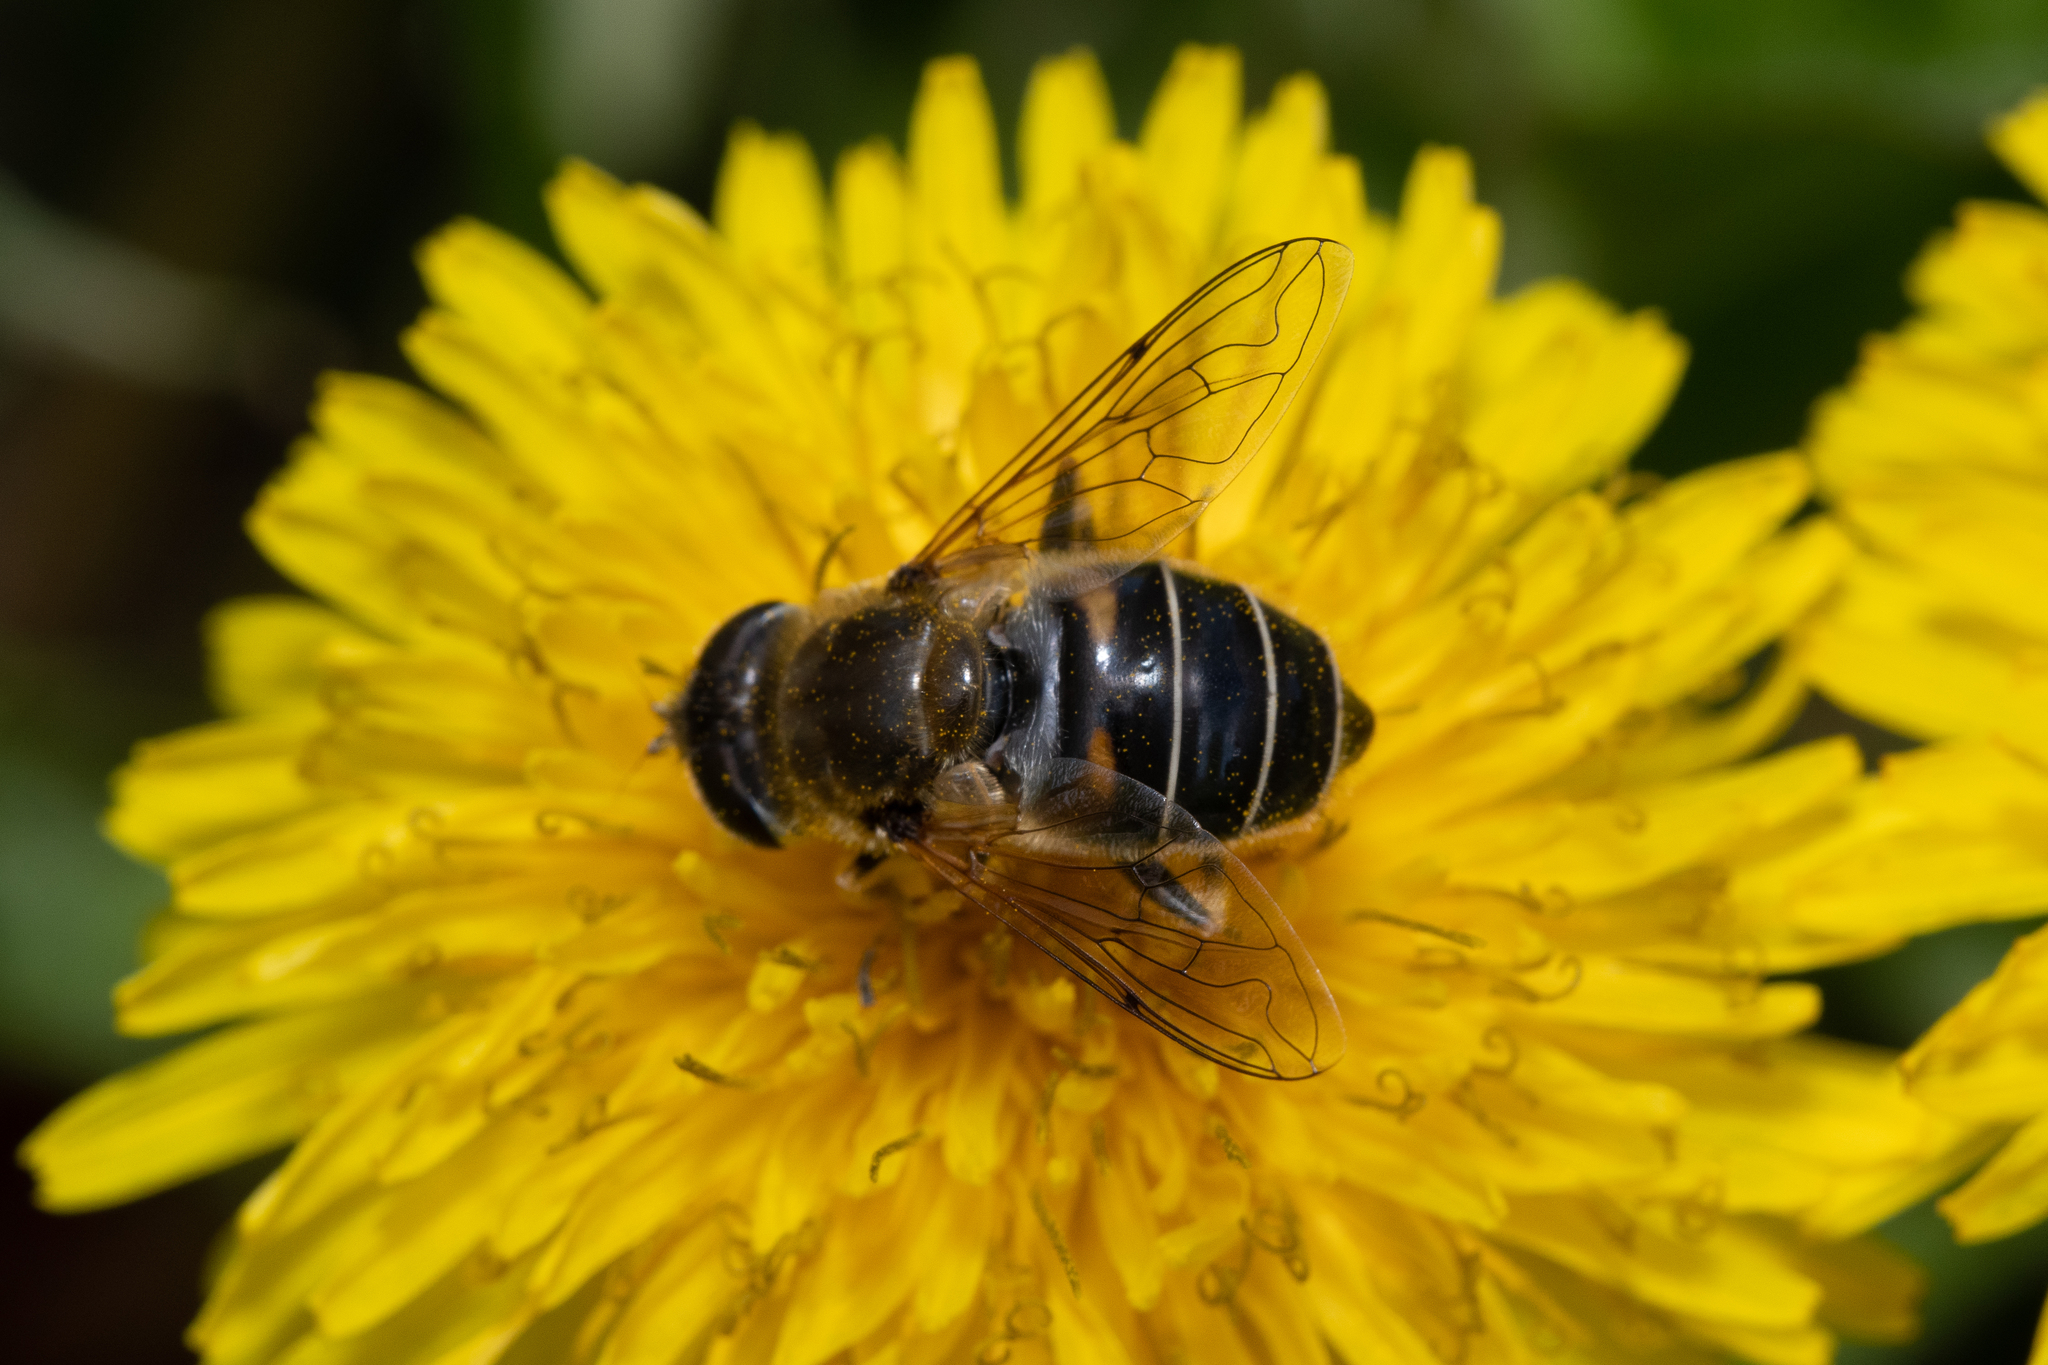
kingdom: Animalia
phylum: Arthropoda
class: Insecta
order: Diptera
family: Syrphidae
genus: Eristalis
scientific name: Eristalis nemorum
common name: Orange-spined drone fly
